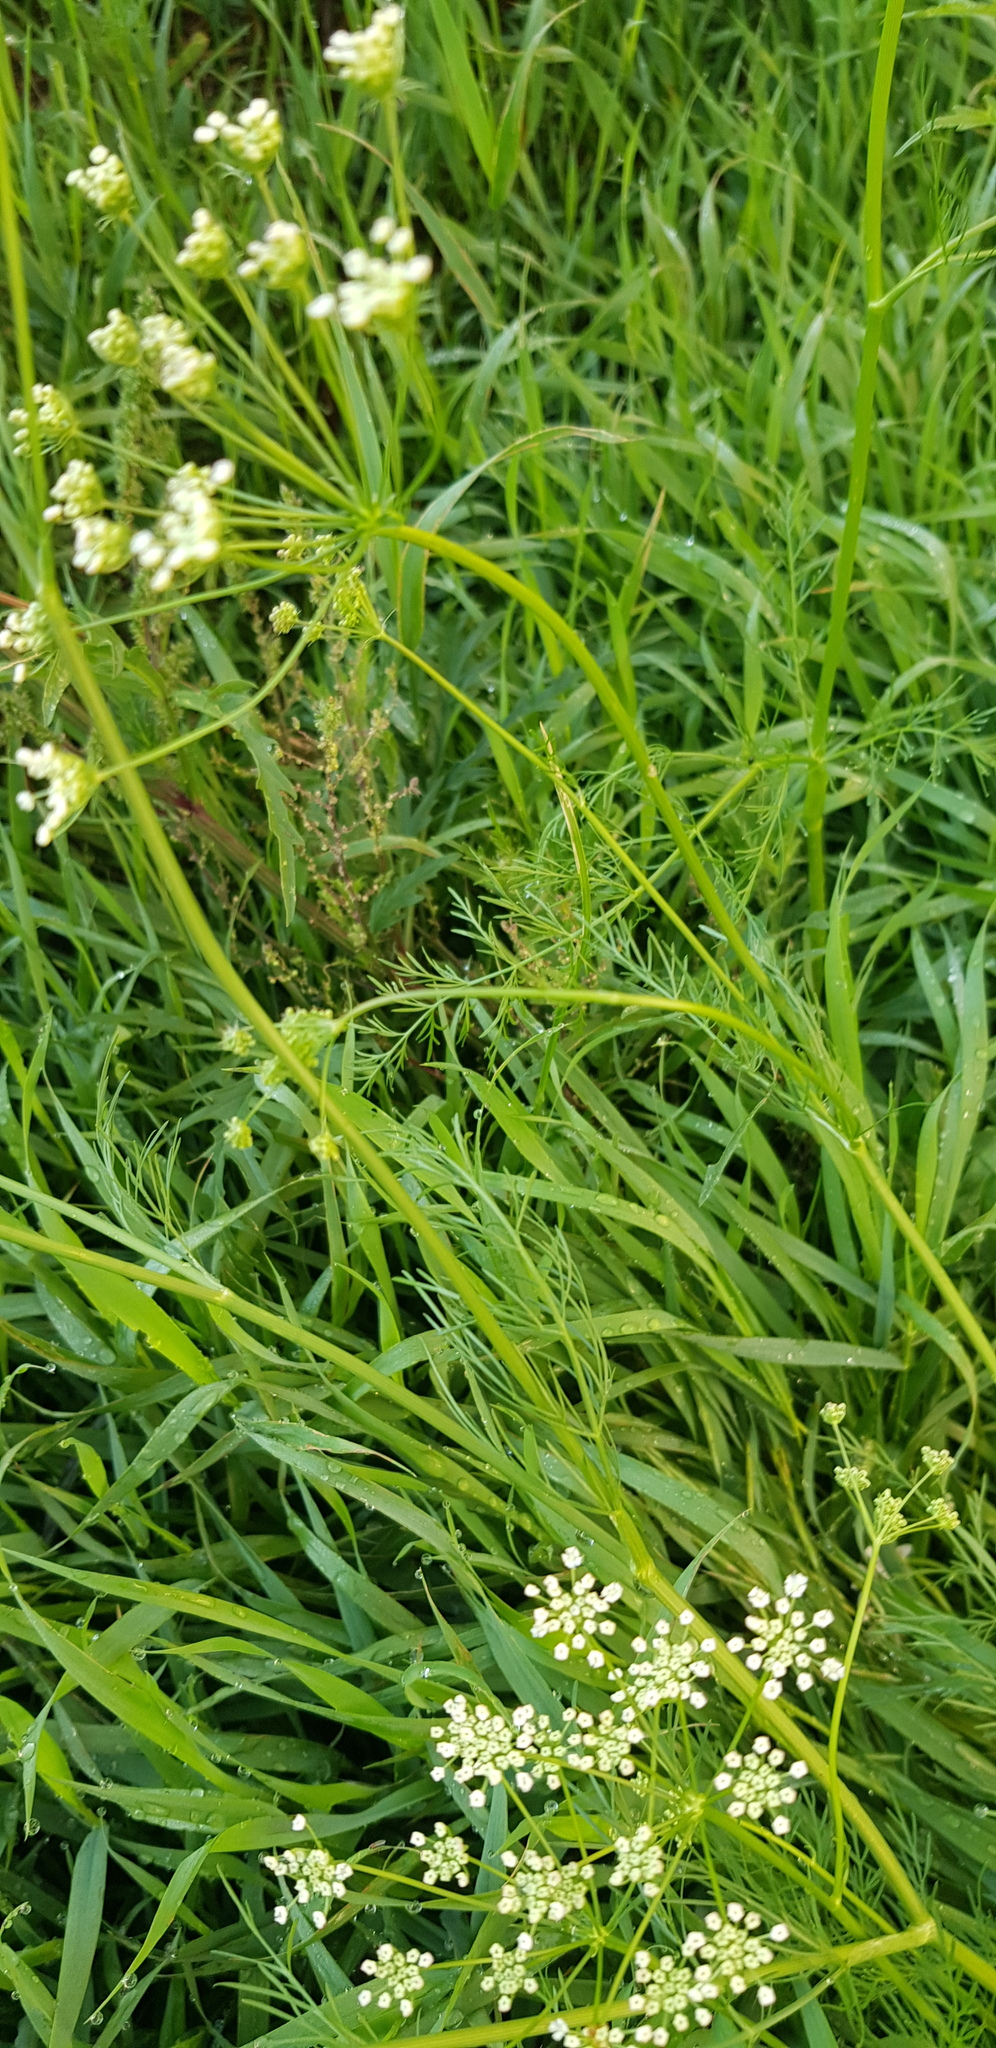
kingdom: Plantae
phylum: Tracheophyta
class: Magnoliopsida
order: Apiales
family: Apiaceae
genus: Carum
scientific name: Carum buriaticum
